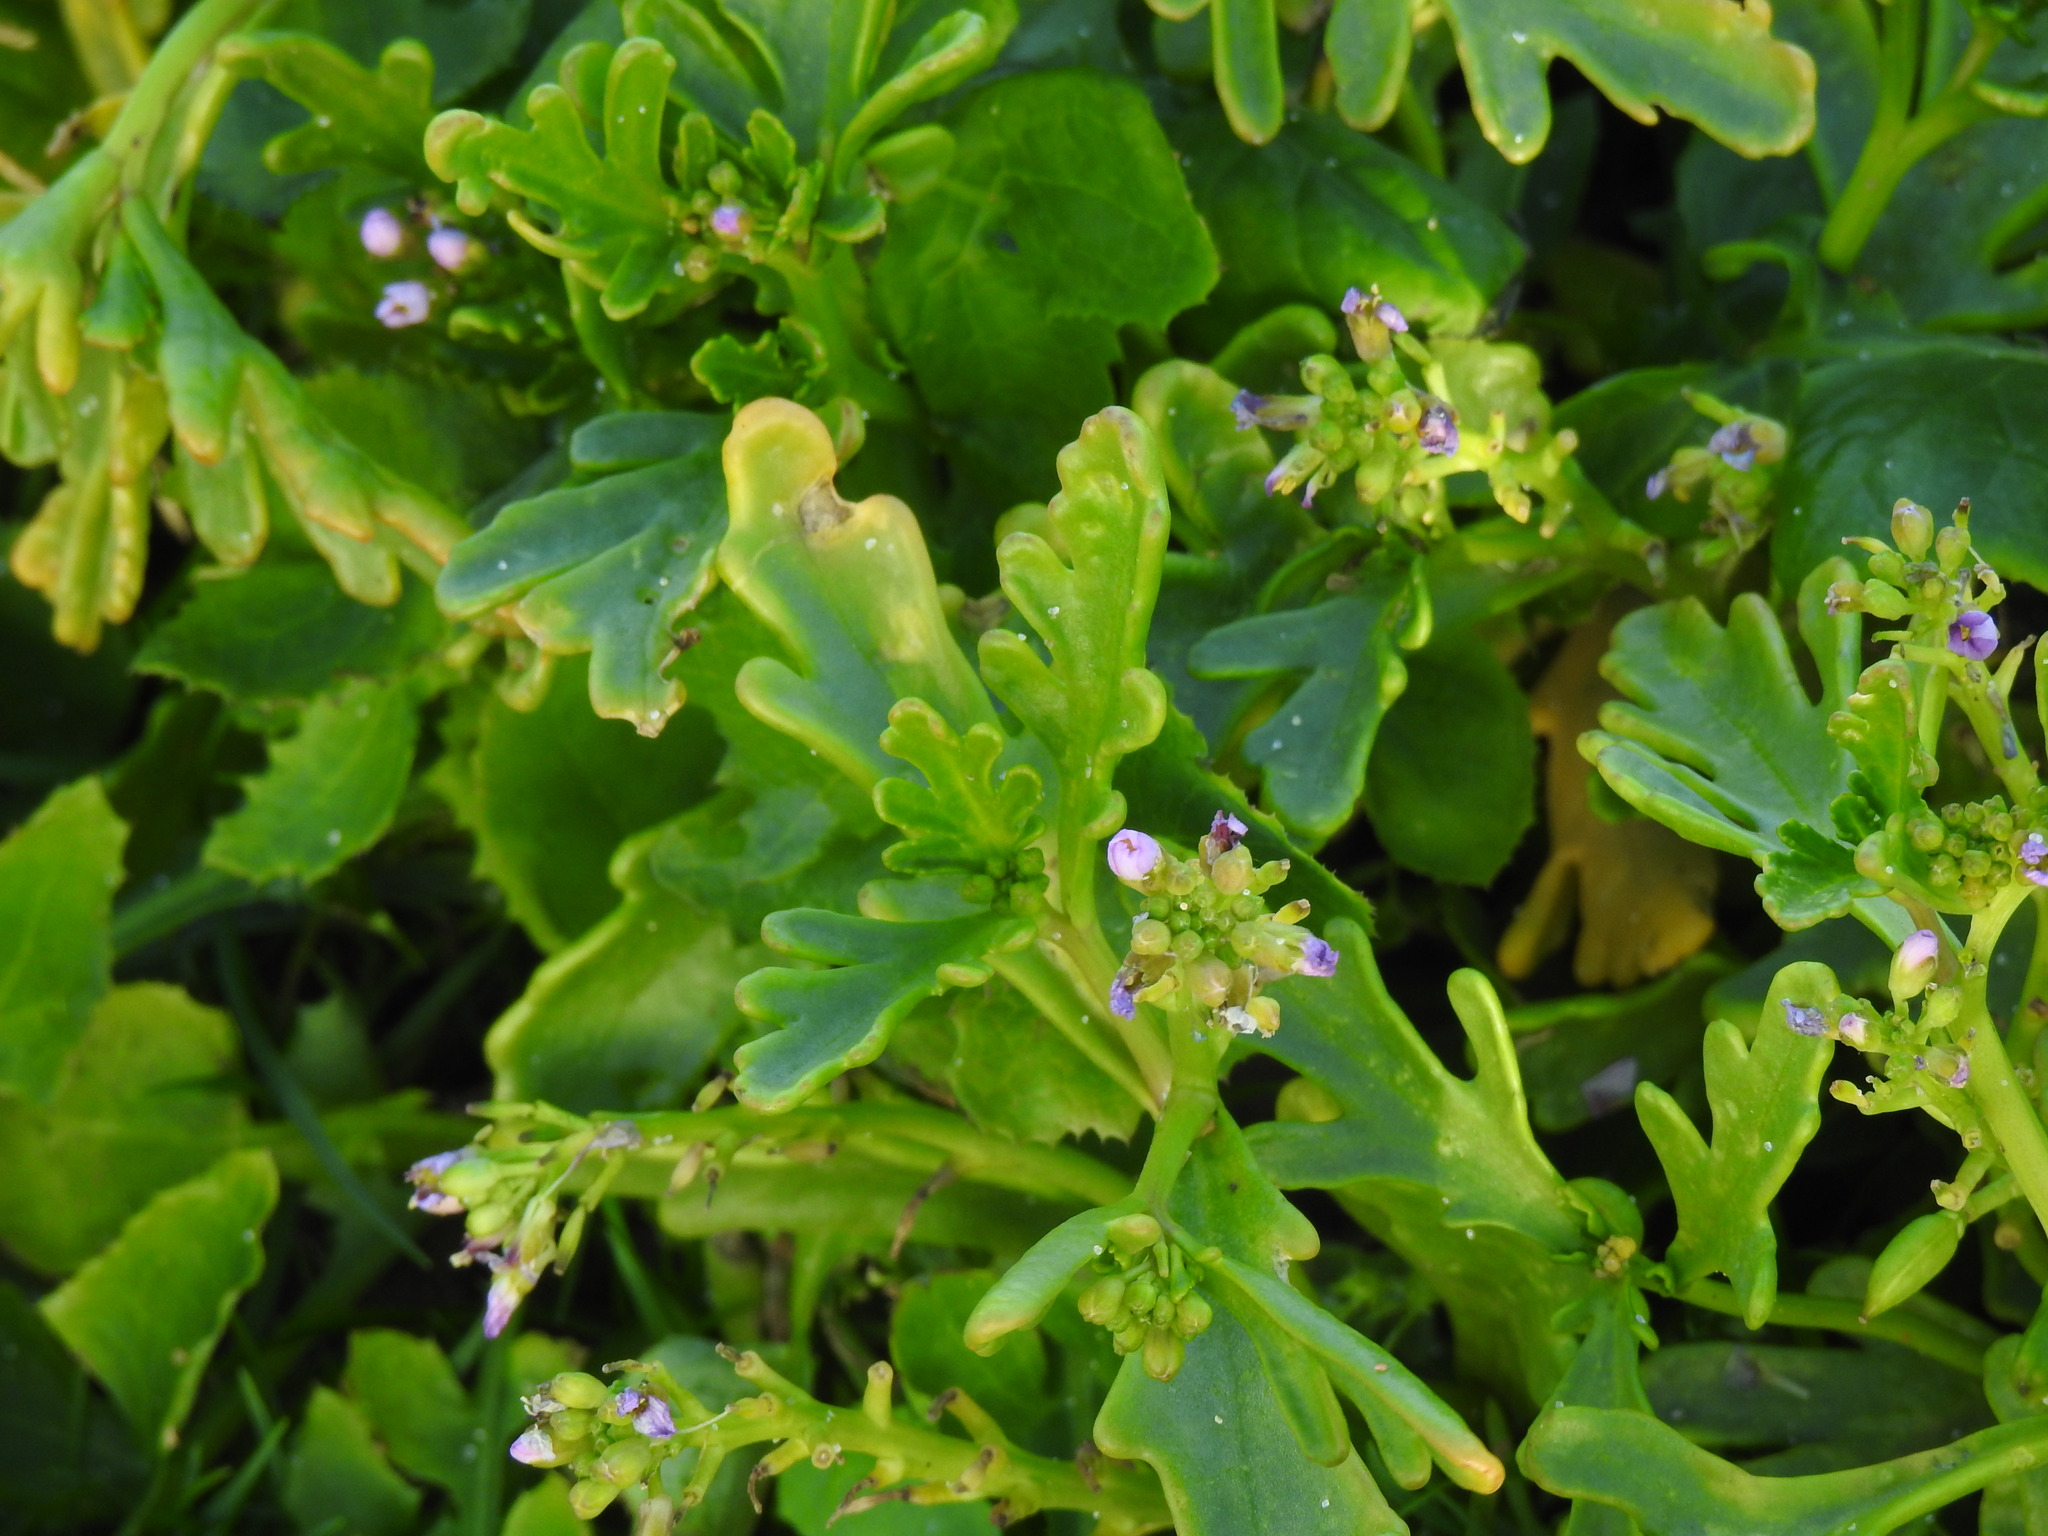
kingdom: Plantae
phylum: Tracheophyta
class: Magnoliopsida
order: Brassicales
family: Brassicaceae
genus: Cakile
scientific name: Cakile maritima
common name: Sea rocket
